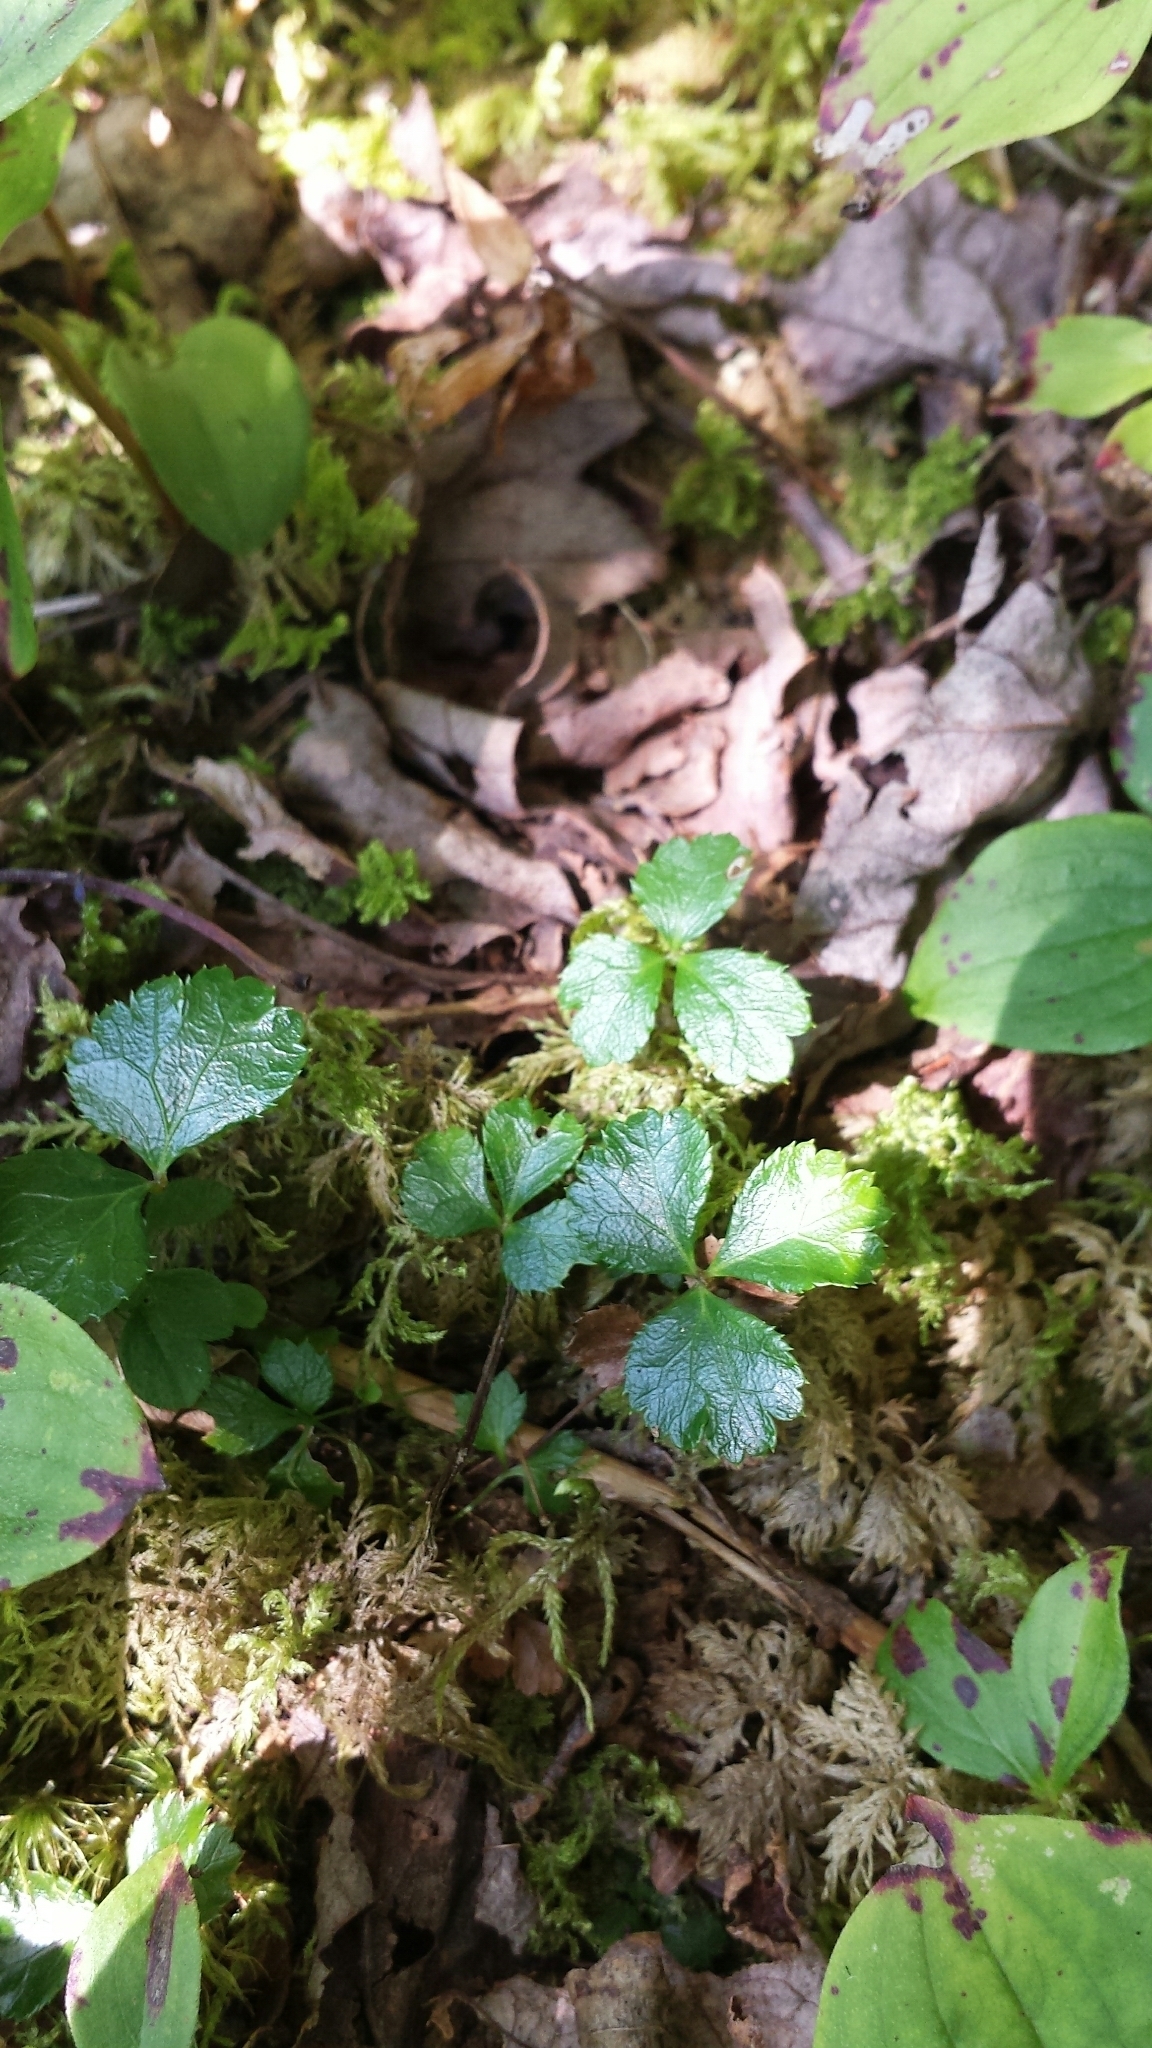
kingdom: Plantae
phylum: Tracheophyta
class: Magnoliopsida
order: Ranunculales
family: Ranunculaceae
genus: Coptis
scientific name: Coptis trifolia
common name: Canker-root
